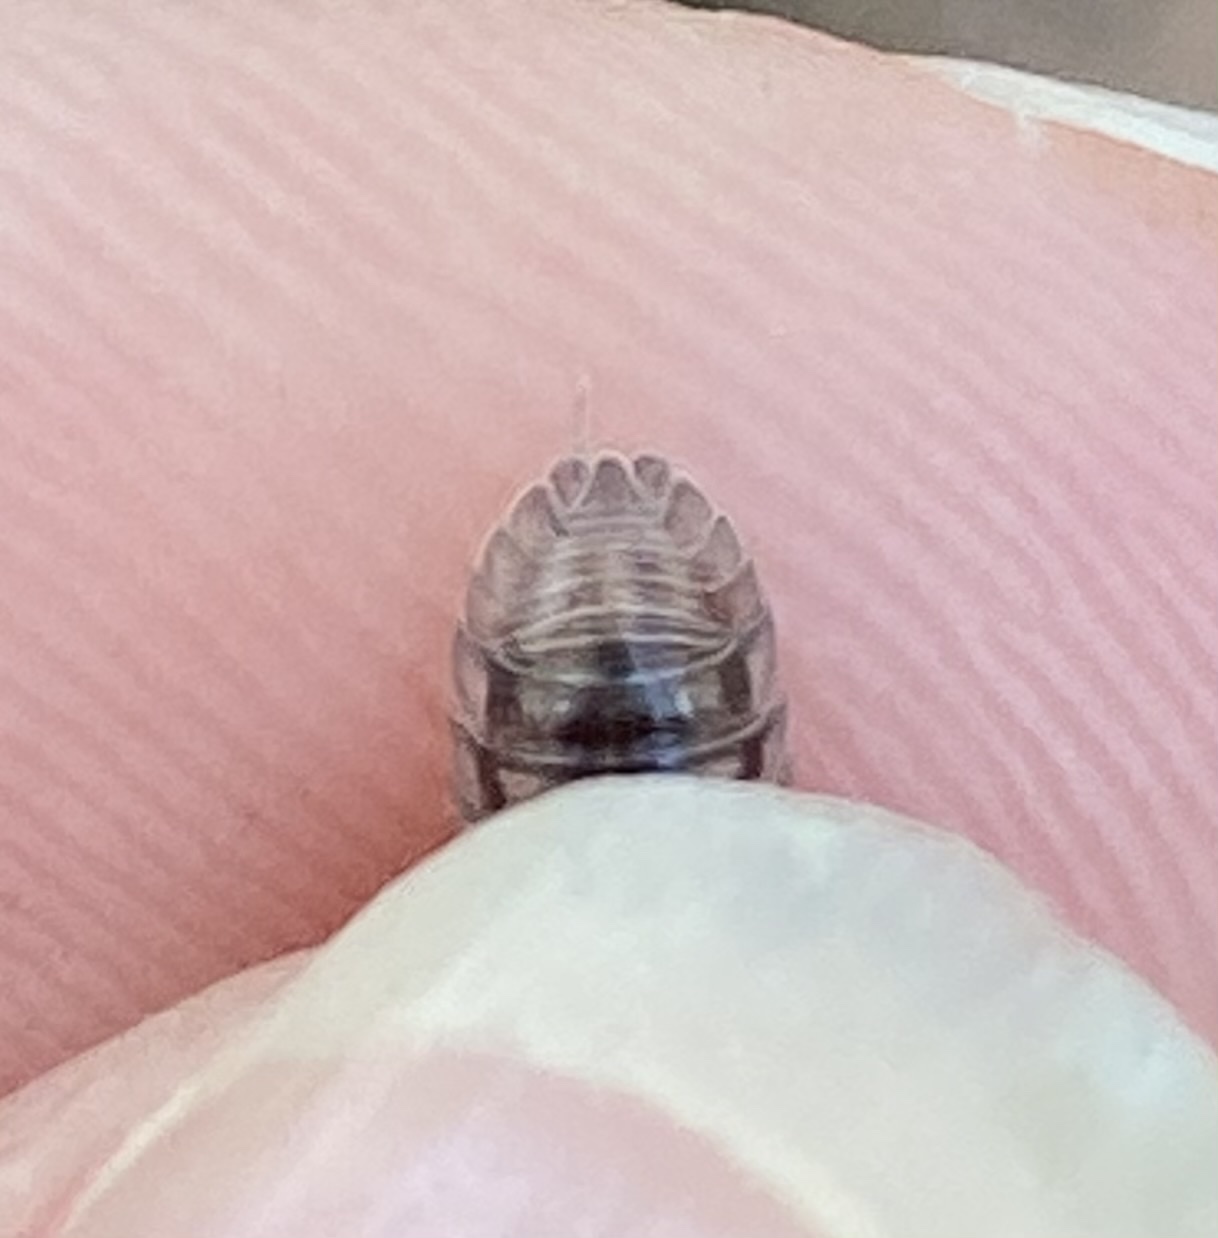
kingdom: Animalia
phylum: Arthropoda
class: Malacostraca
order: Isopoda
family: Armadillidiidae
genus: Armadillidium
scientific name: Armadillidium nasatum
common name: Isopod
